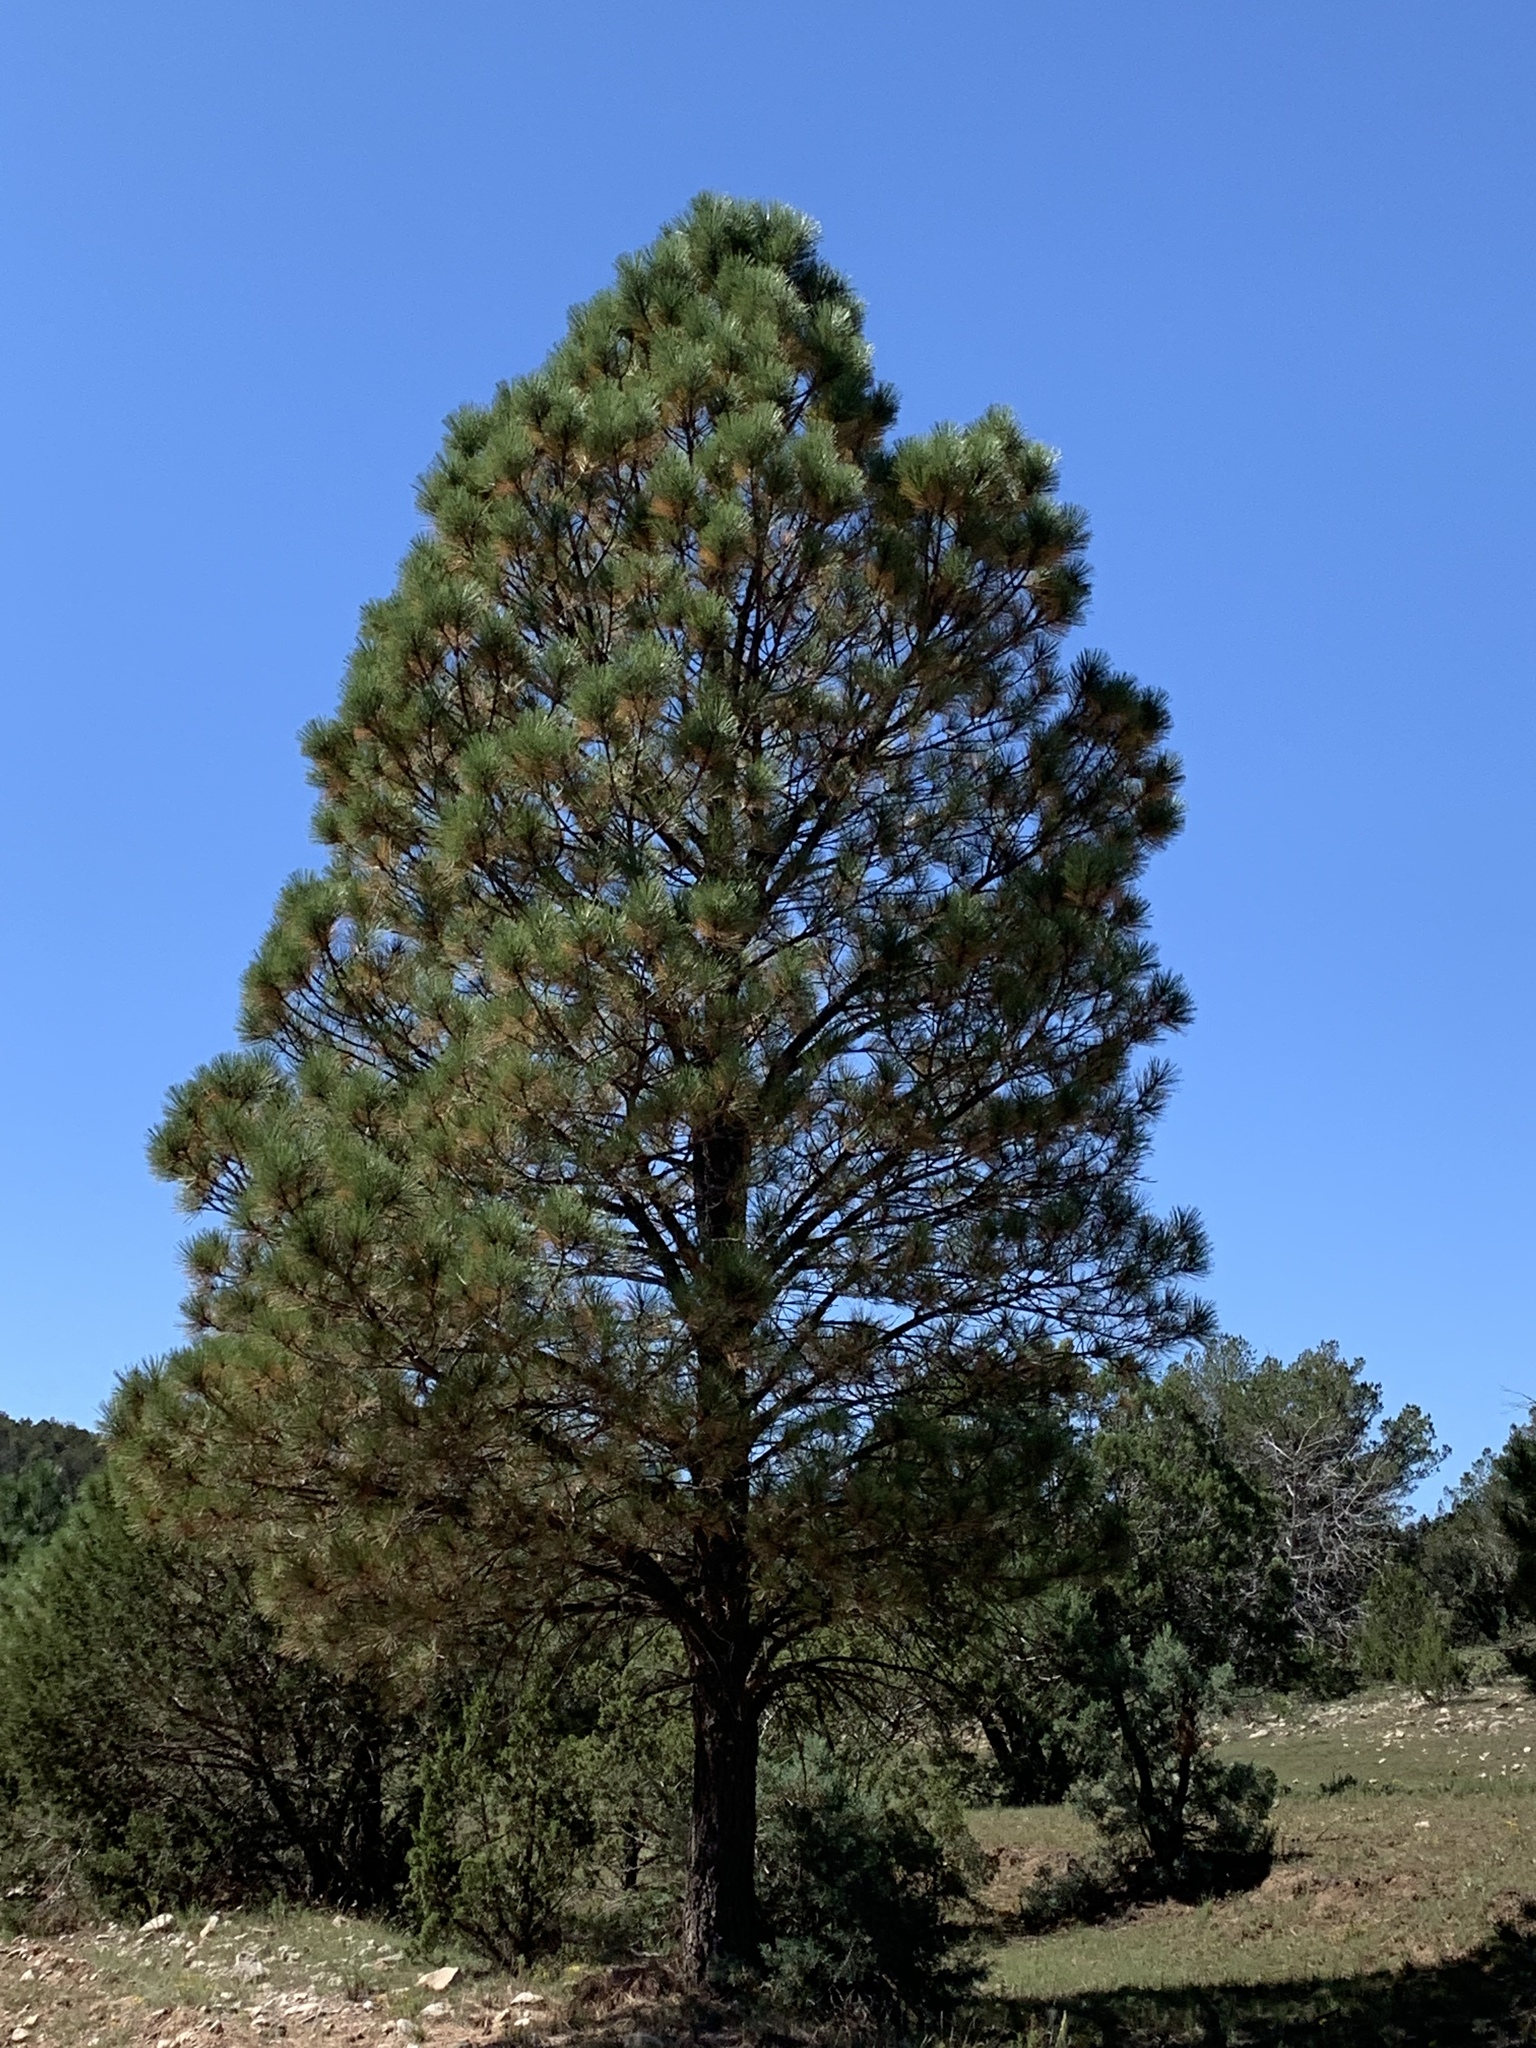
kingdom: Plantae
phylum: Tracheophyta
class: Pinopsida
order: Pinales
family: Pinaceae
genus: Pinus
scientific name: Pinus ponderosa
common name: Western yellow-pine
